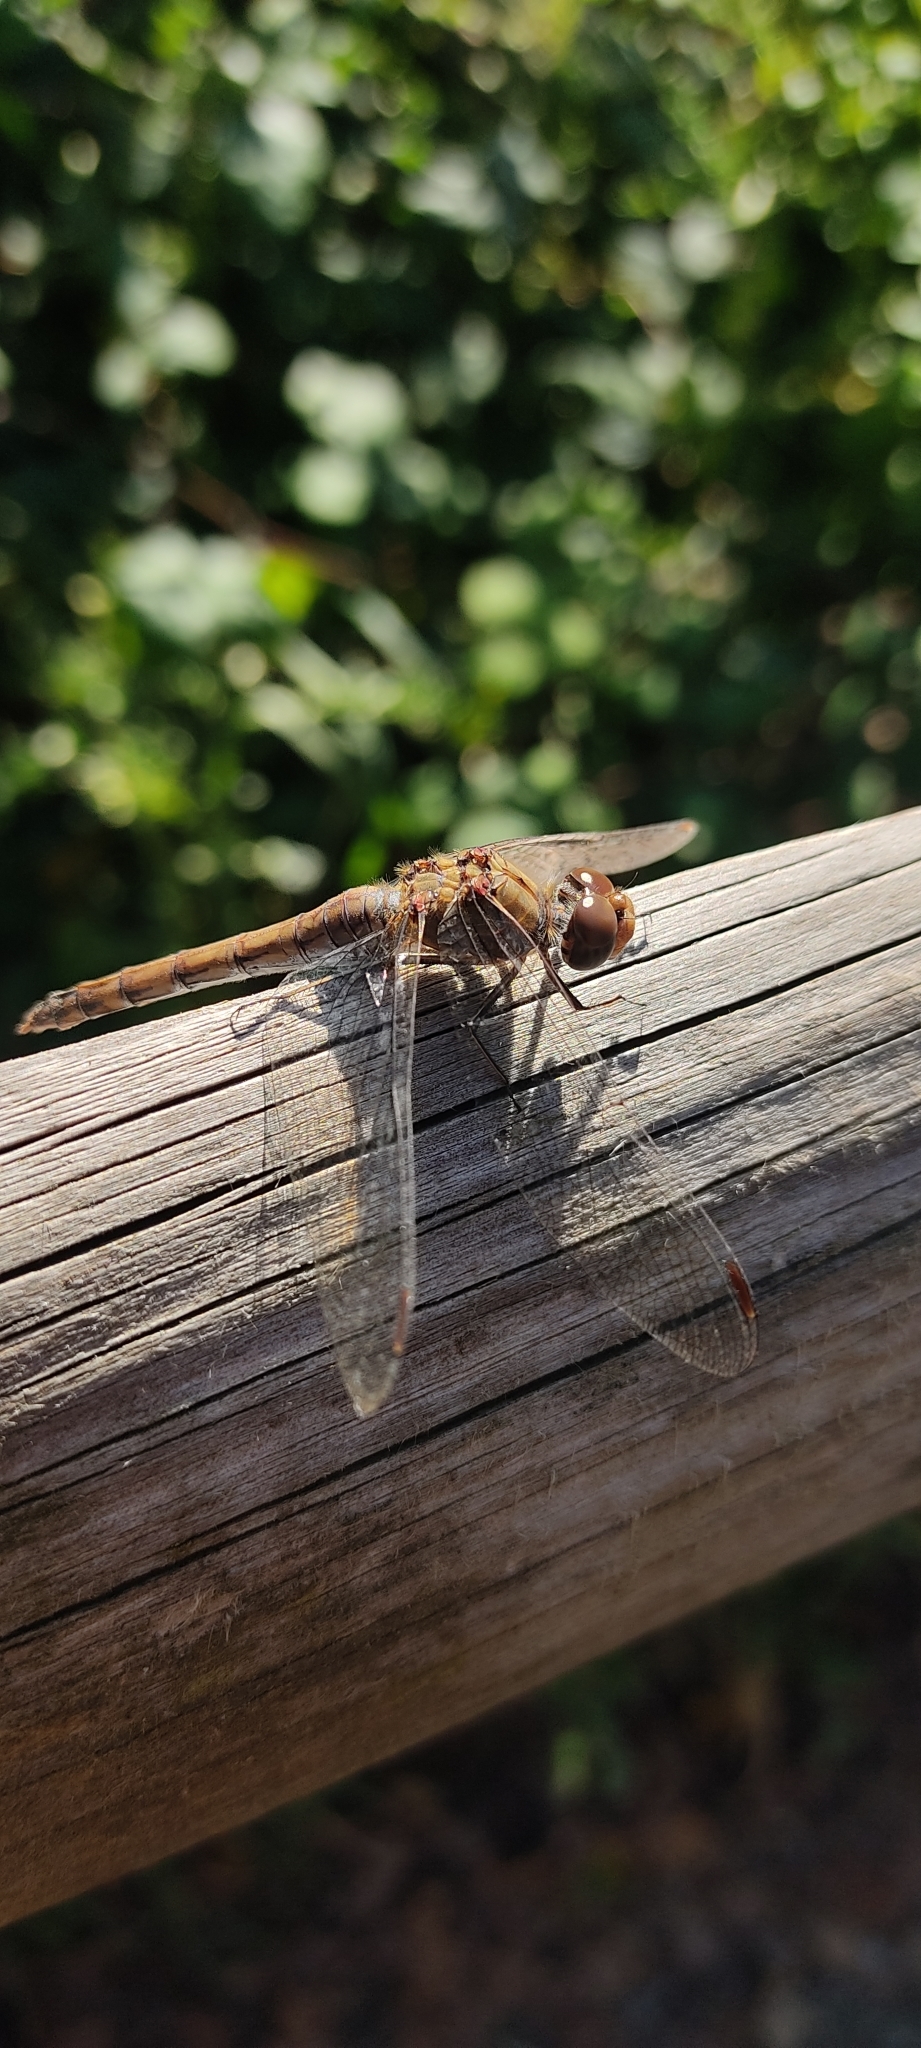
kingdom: Animalia
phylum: Arthropoda
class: Insecta
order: Odonata
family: Libellulidae
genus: Sympetrum
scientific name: Sympetrum striolatum
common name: Common darter
